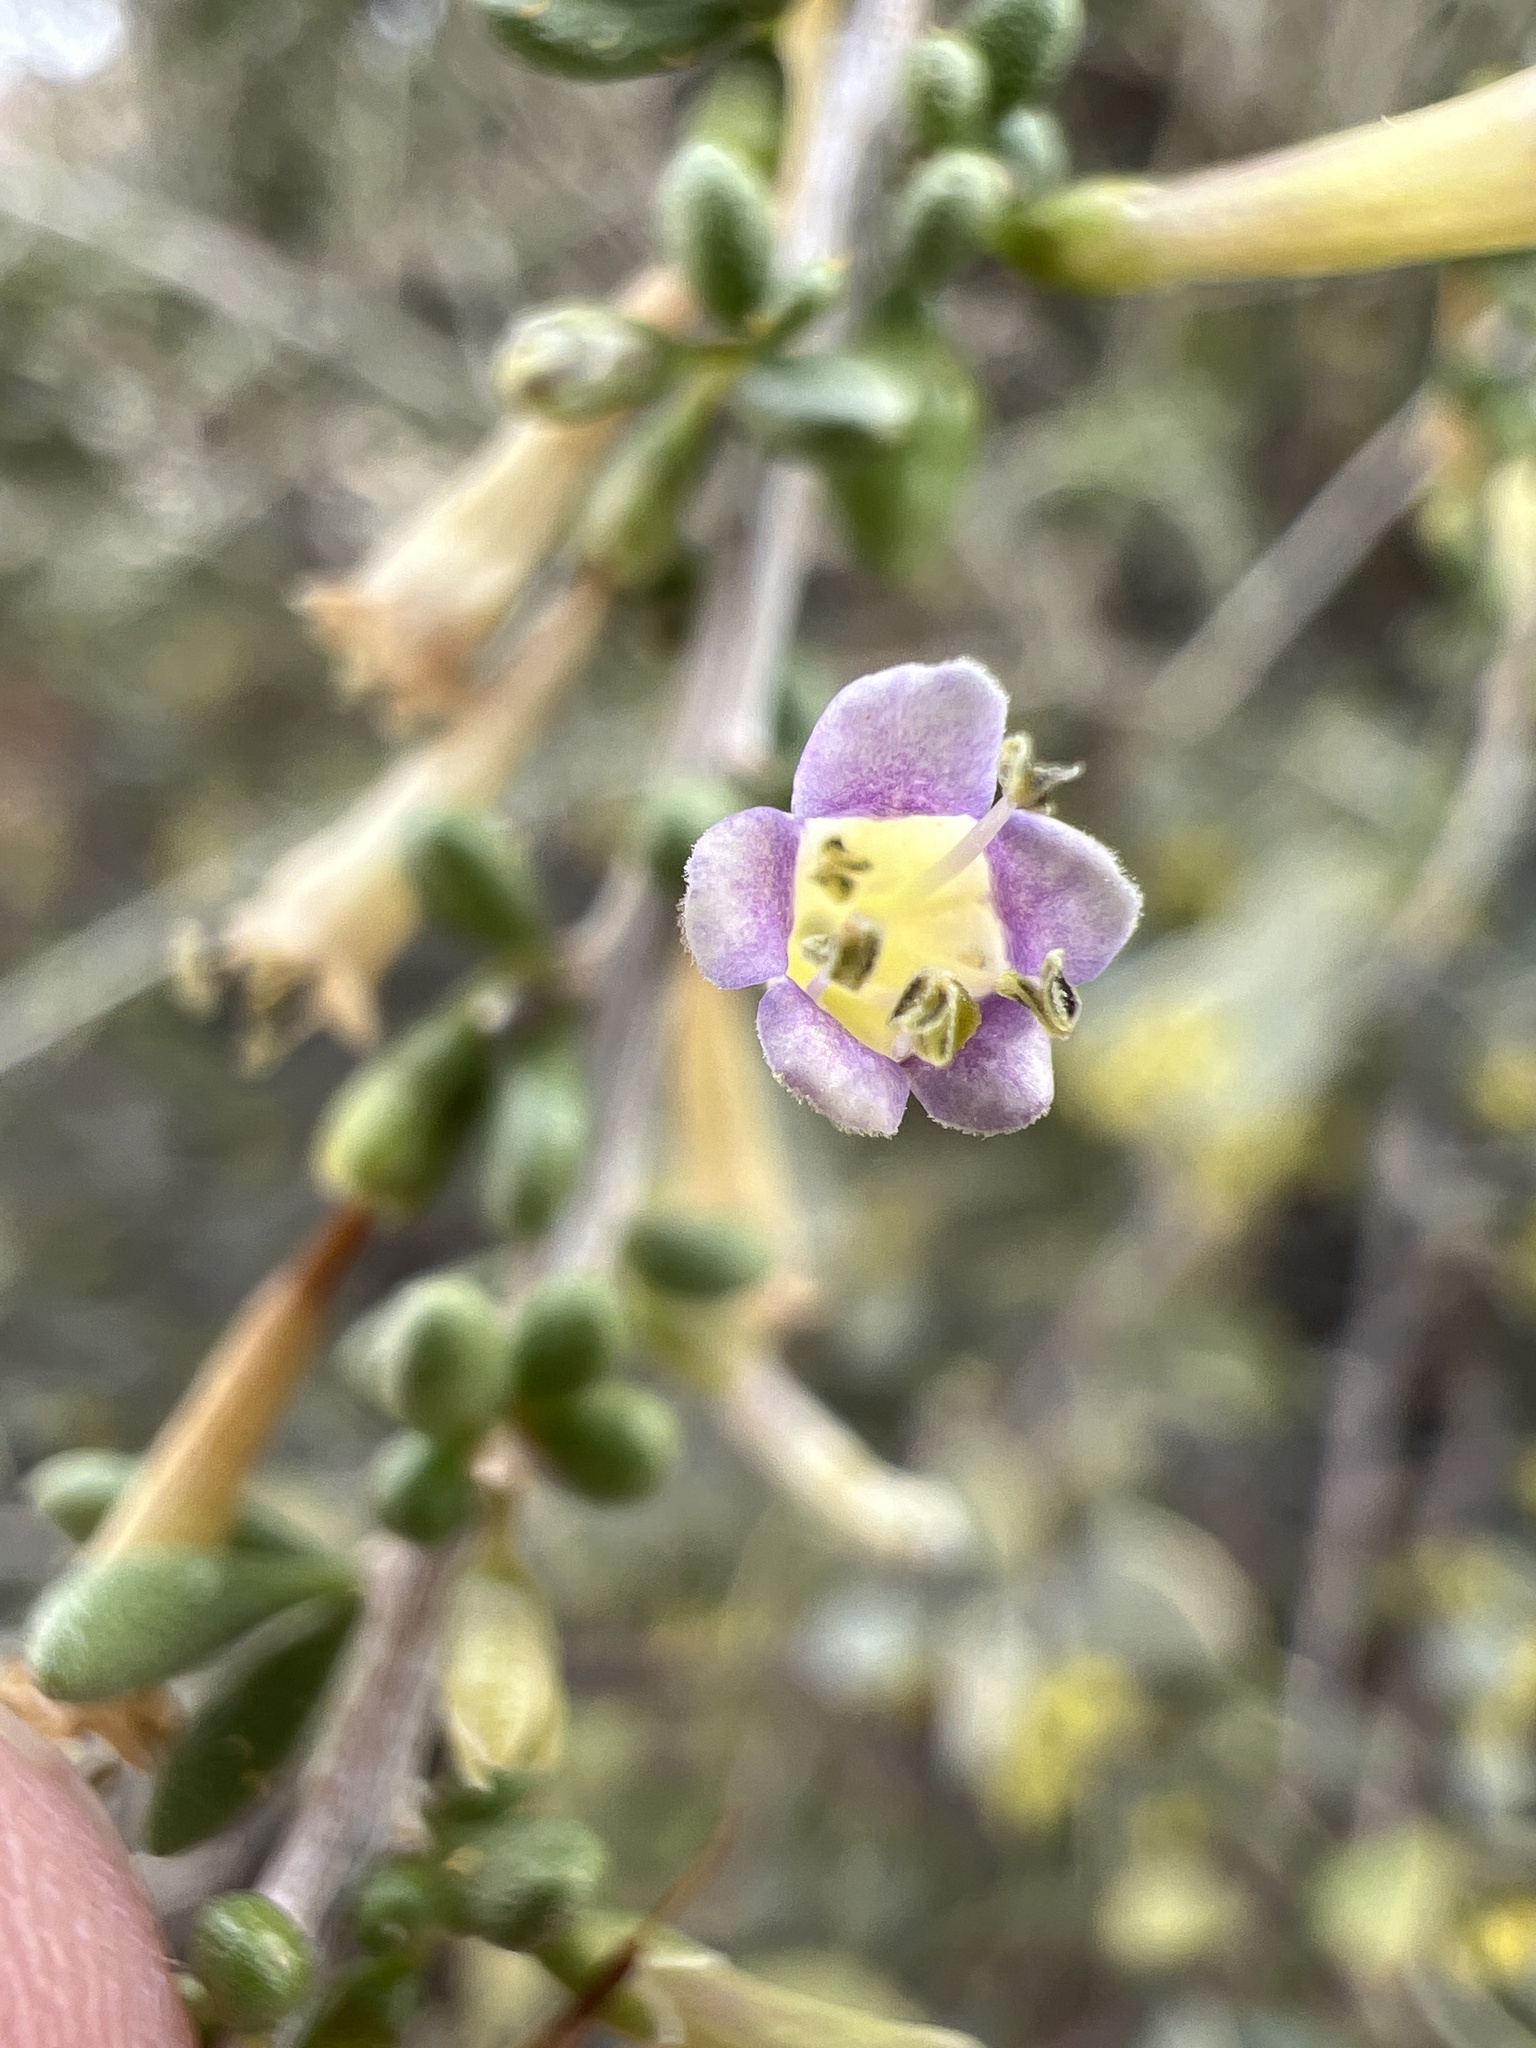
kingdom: Plantae
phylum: Tracheophyta
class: Magnoliopsida
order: Solanales
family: Solanaceae
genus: Lycium
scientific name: Lycium andersonii
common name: Water-jacket
